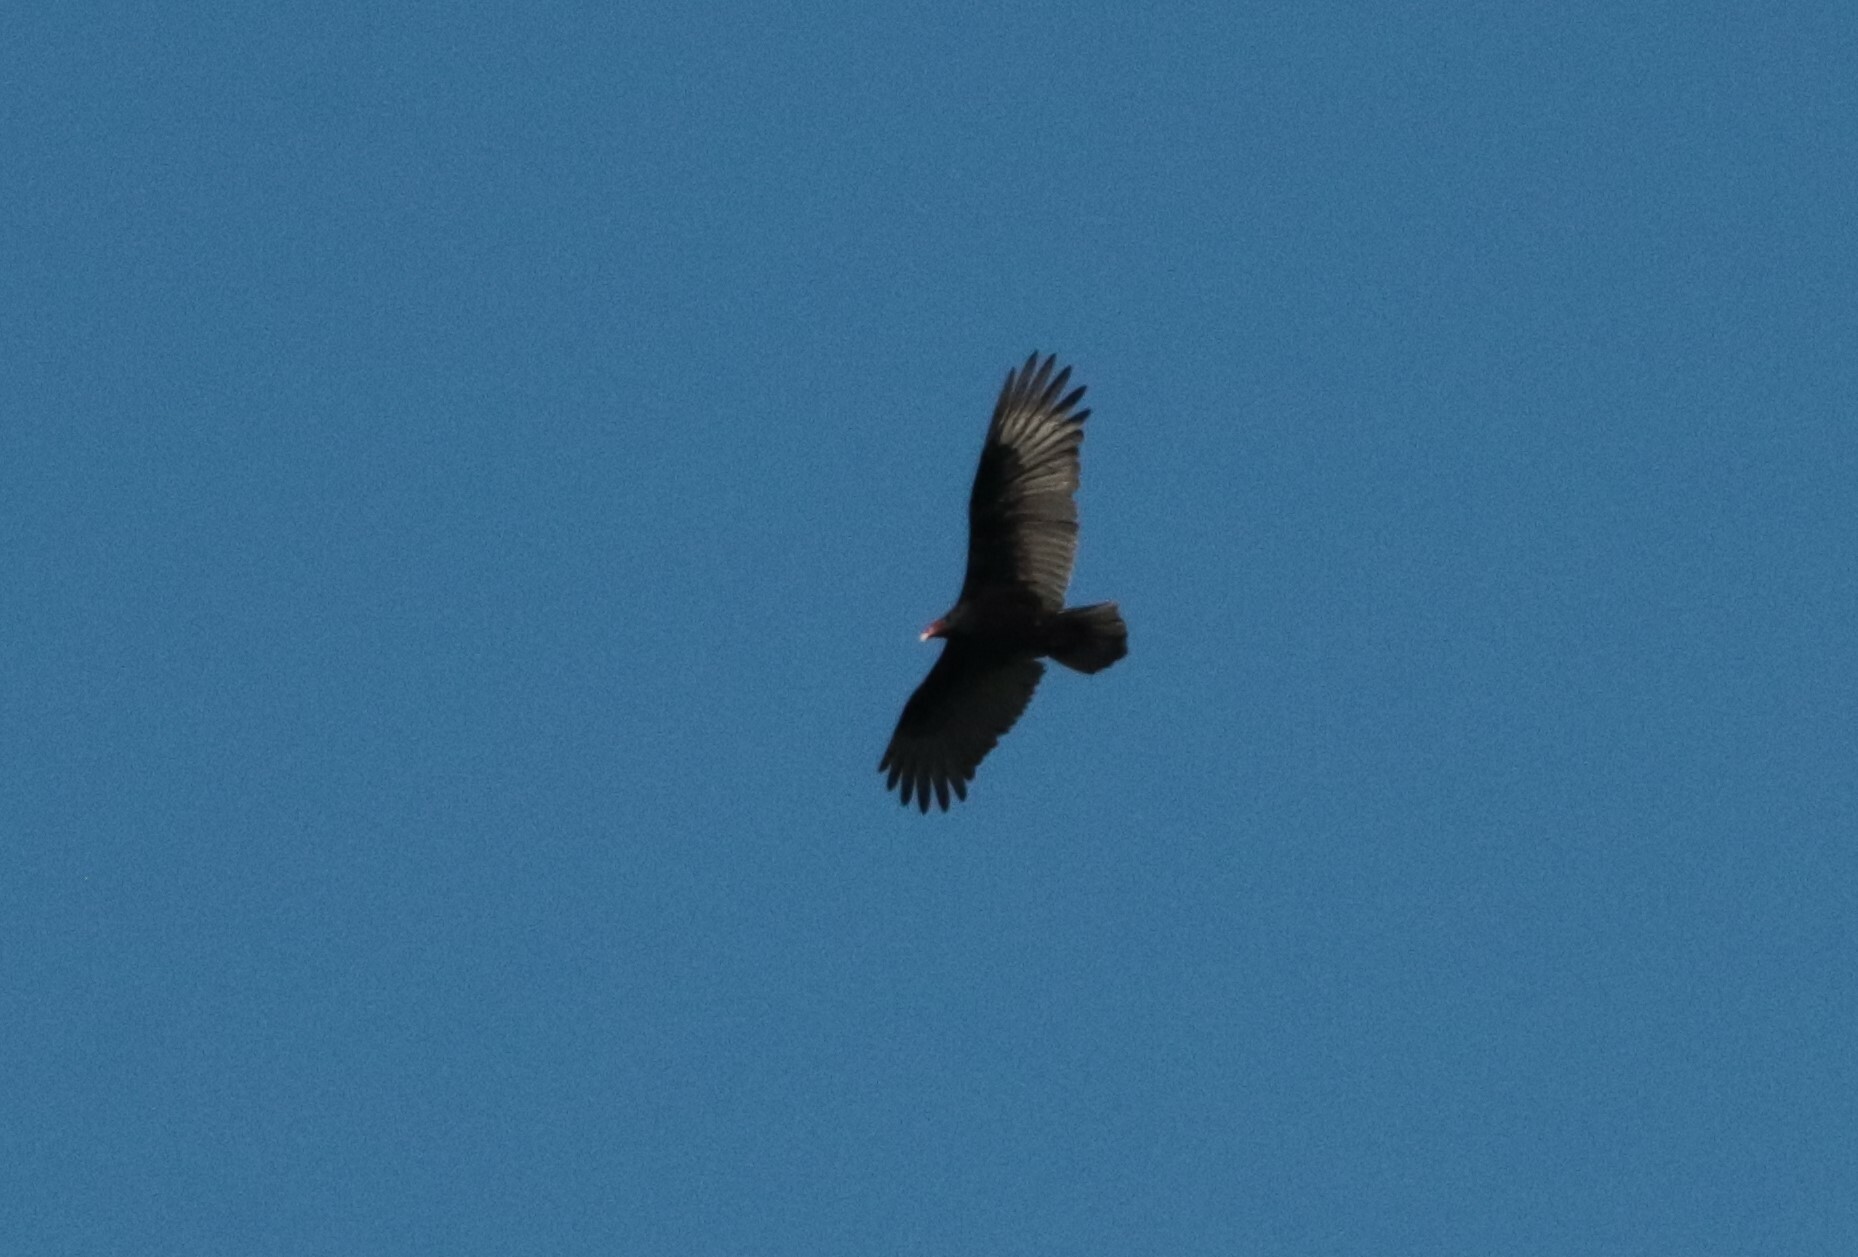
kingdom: Animalia
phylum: Chordata
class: Aves
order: Accipitriformes
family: Cathartidae
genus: Cathartes
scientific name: Cathartes aura
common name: Turkey vulture
